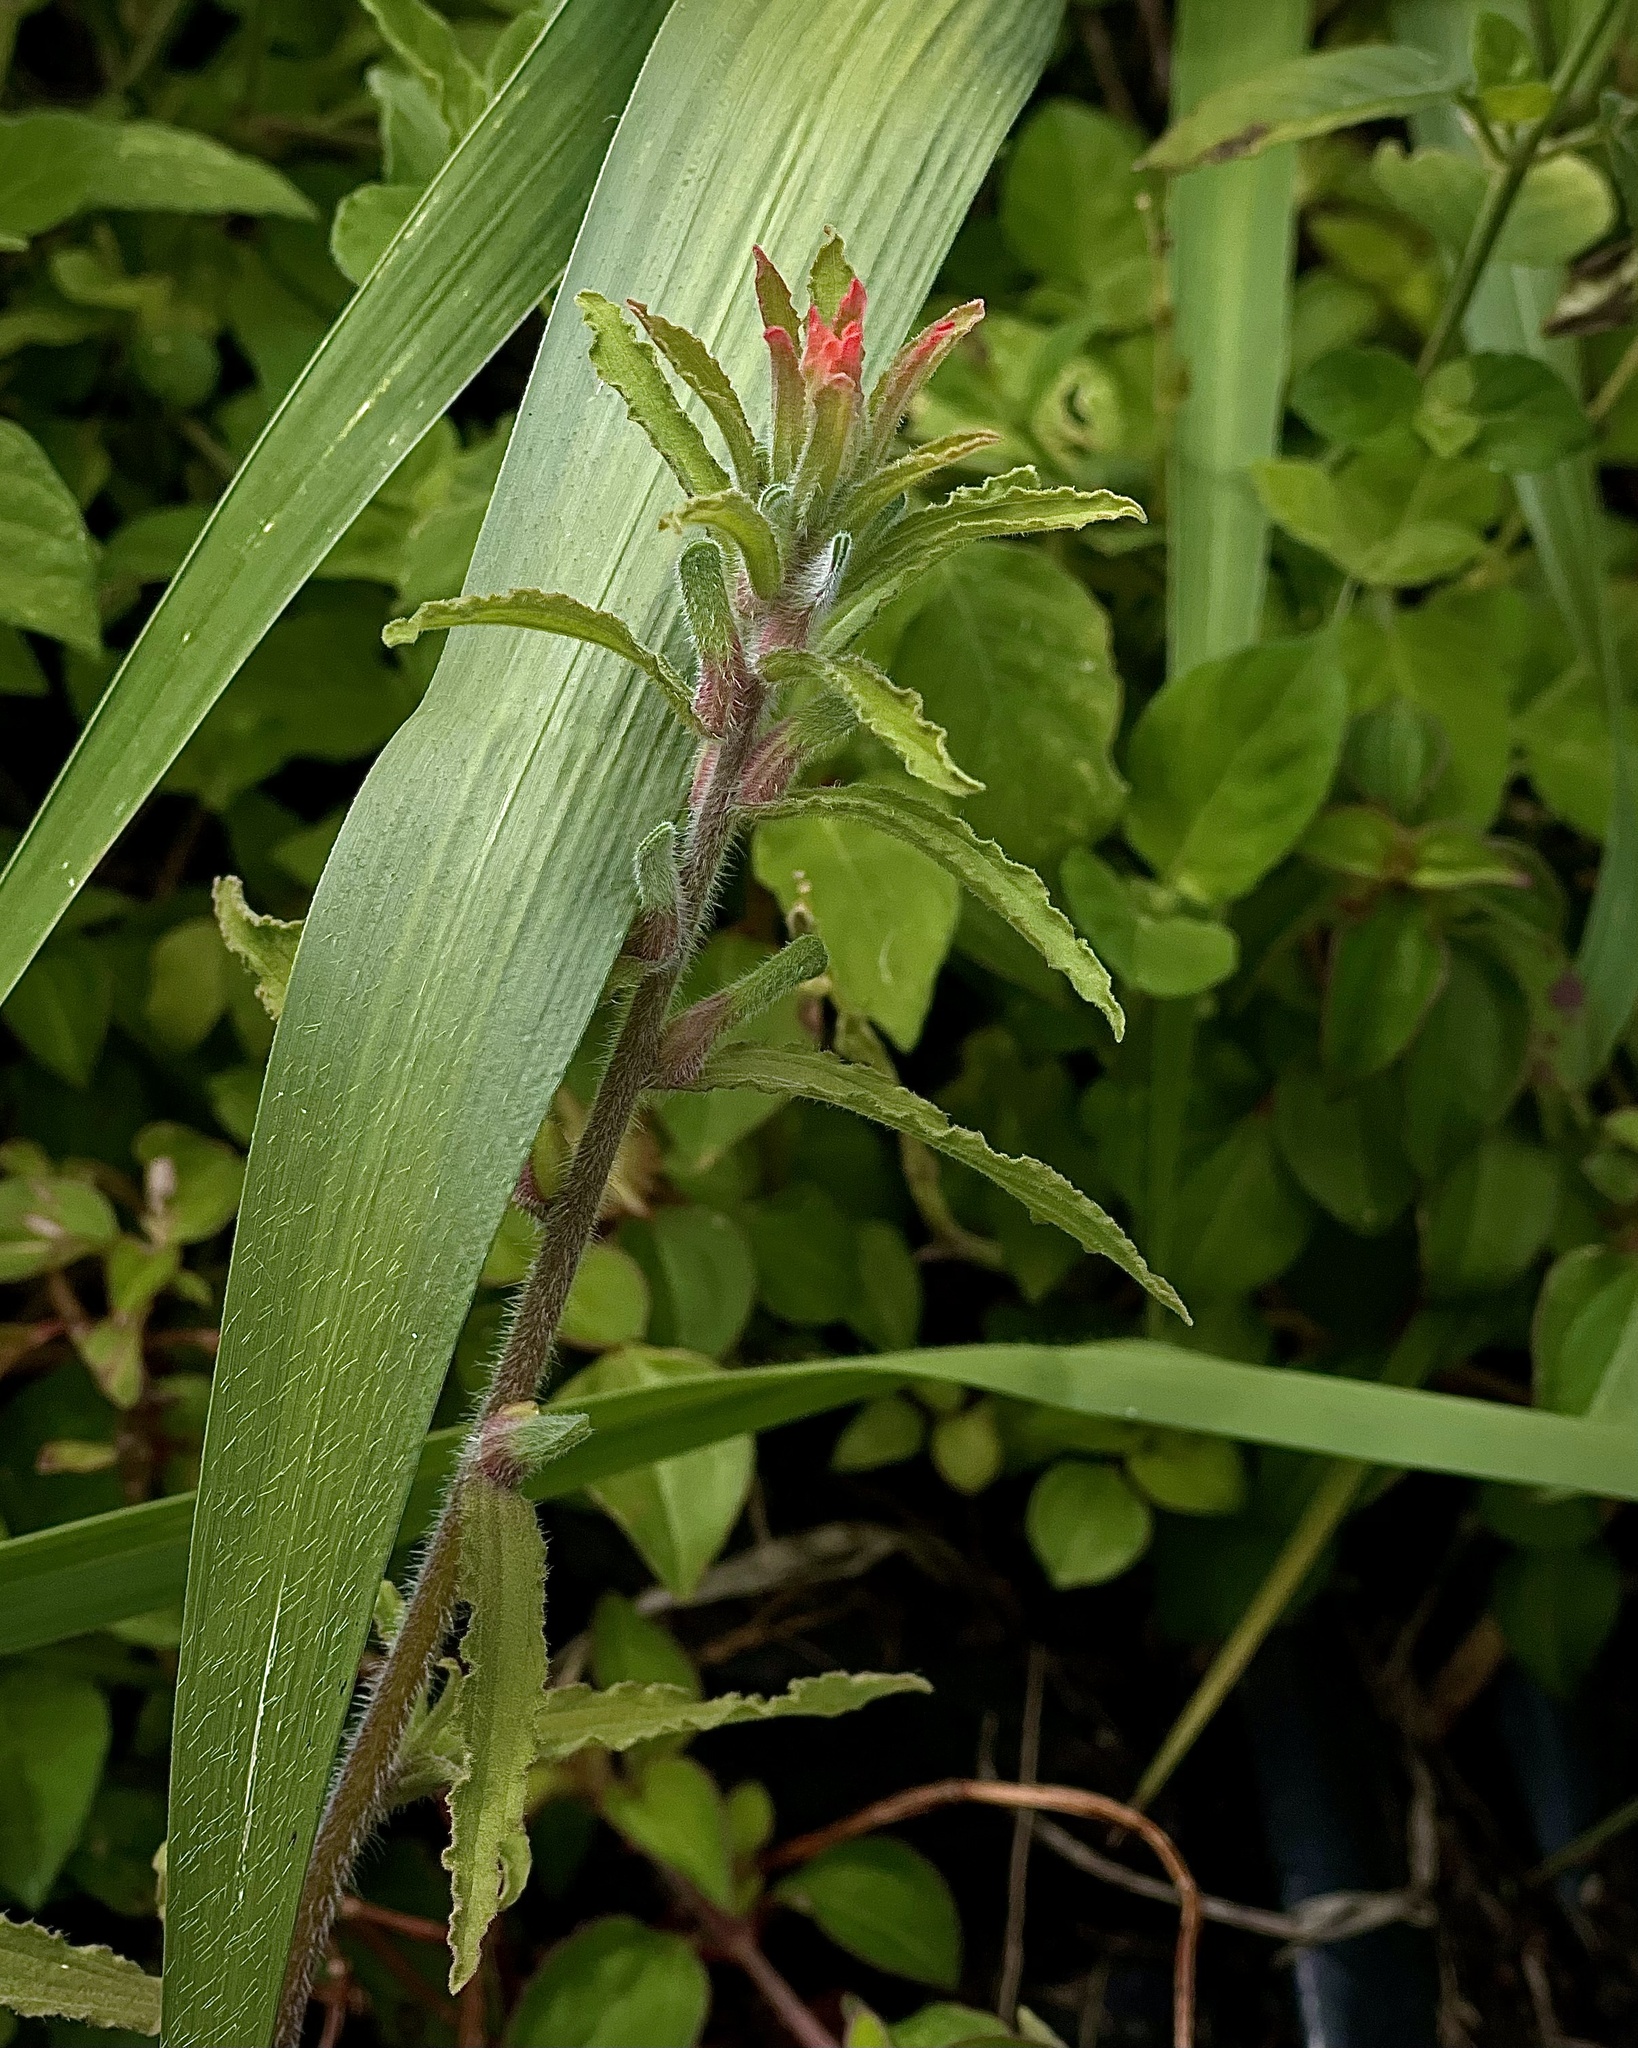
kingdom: Plantae
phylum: Tracheophyta
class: Magnoliopsida
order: Lamiales
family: Orobanchaceae
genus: Castilleja
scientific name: Castilleja arvensis
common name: Indian paintbrush
